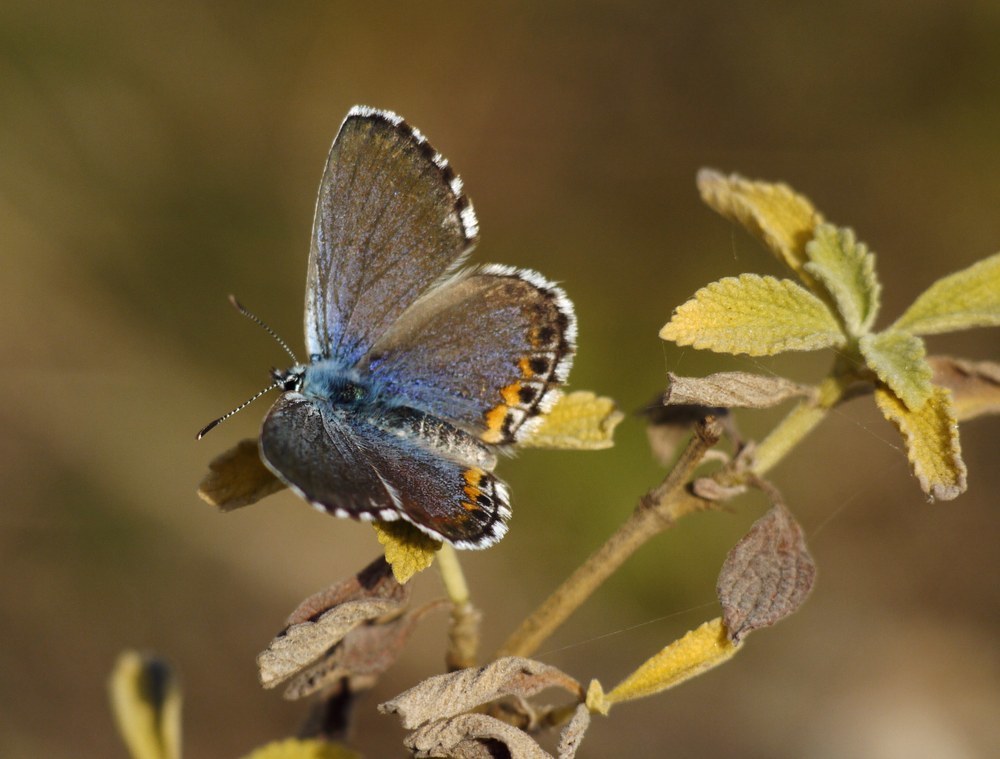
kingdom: Animalia
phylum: Arthropoda
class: Insecta
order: Lepidoptera
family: Lycaenidae
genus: Pseudophilotes
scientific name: Pseudophilotes bavius
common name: Bavius blue
